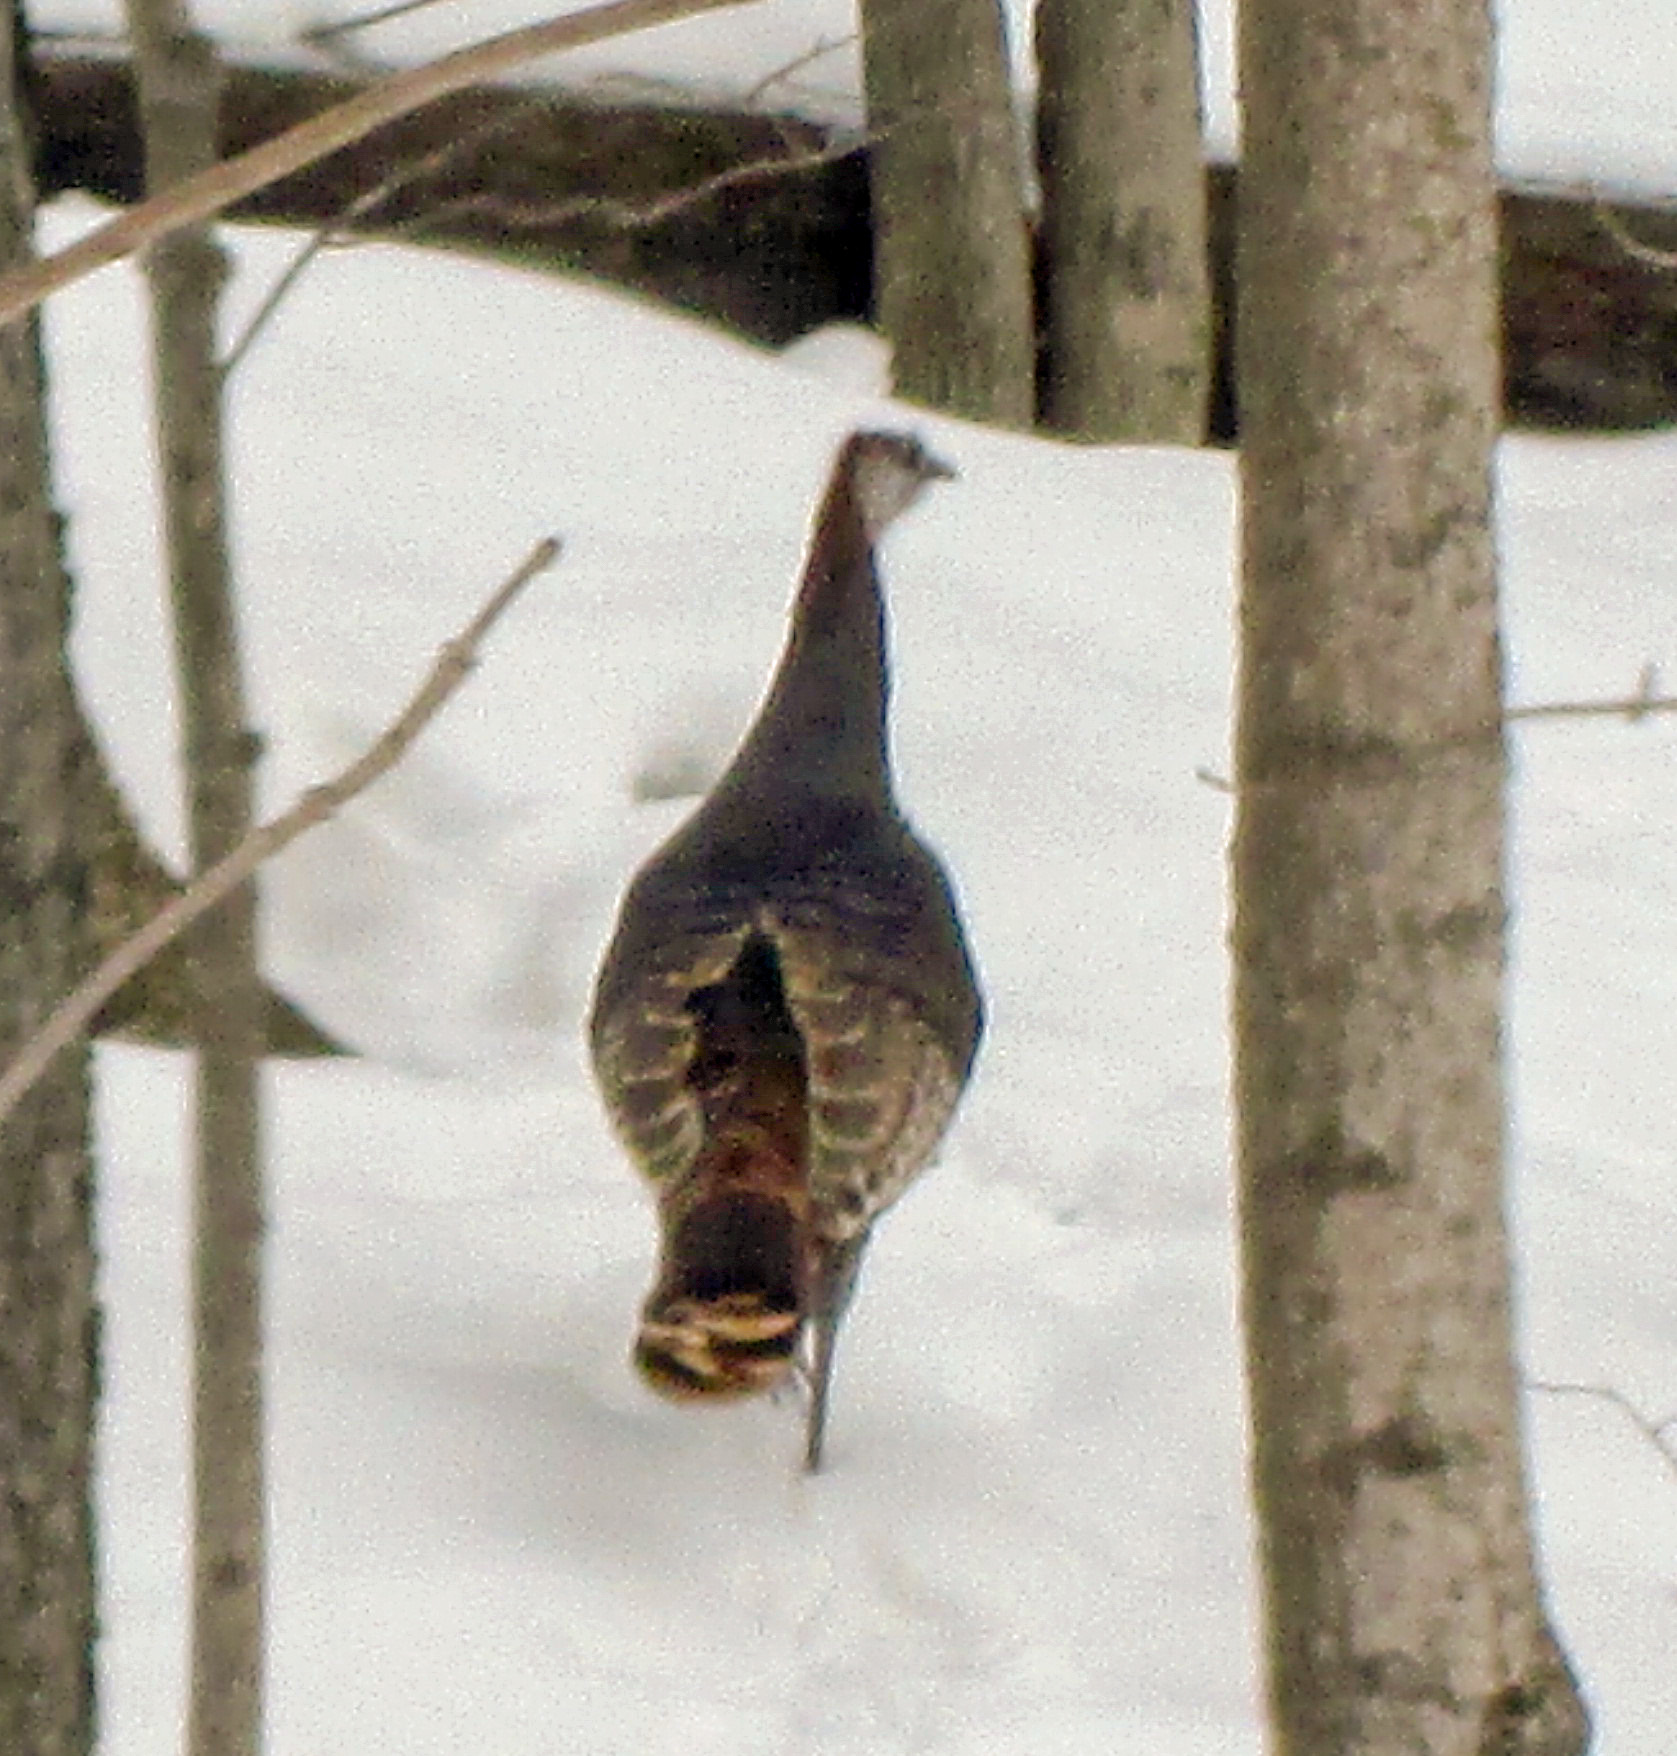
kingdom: Animalia
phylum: Chordata
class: Aves
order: Galliformes
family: Phasianidae
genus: Meleagris
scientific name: Meleagris gallopavo
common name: Wild turkey
